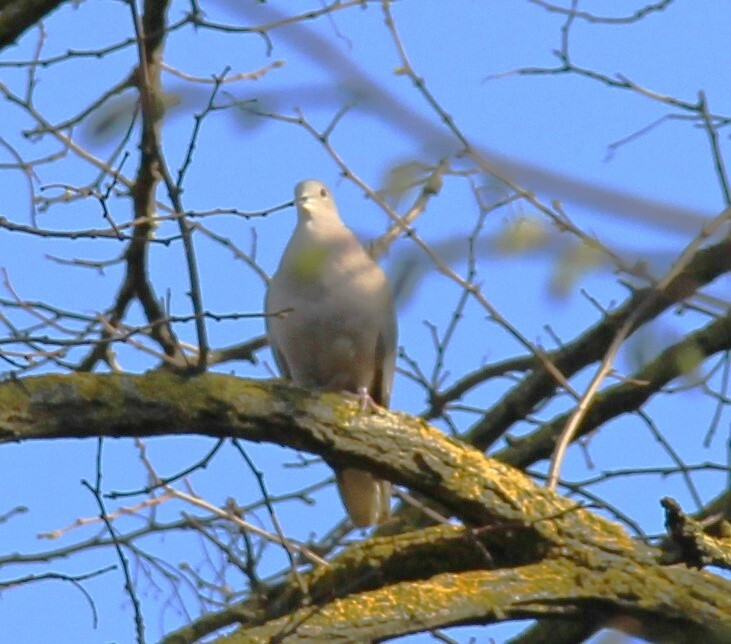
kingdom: Animalia
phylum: Chordata
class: Aves
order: Columbiformes
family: Columbidae
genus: Streptopelia
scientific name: Streptopelia decaocto
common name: Eurasian collared dove
